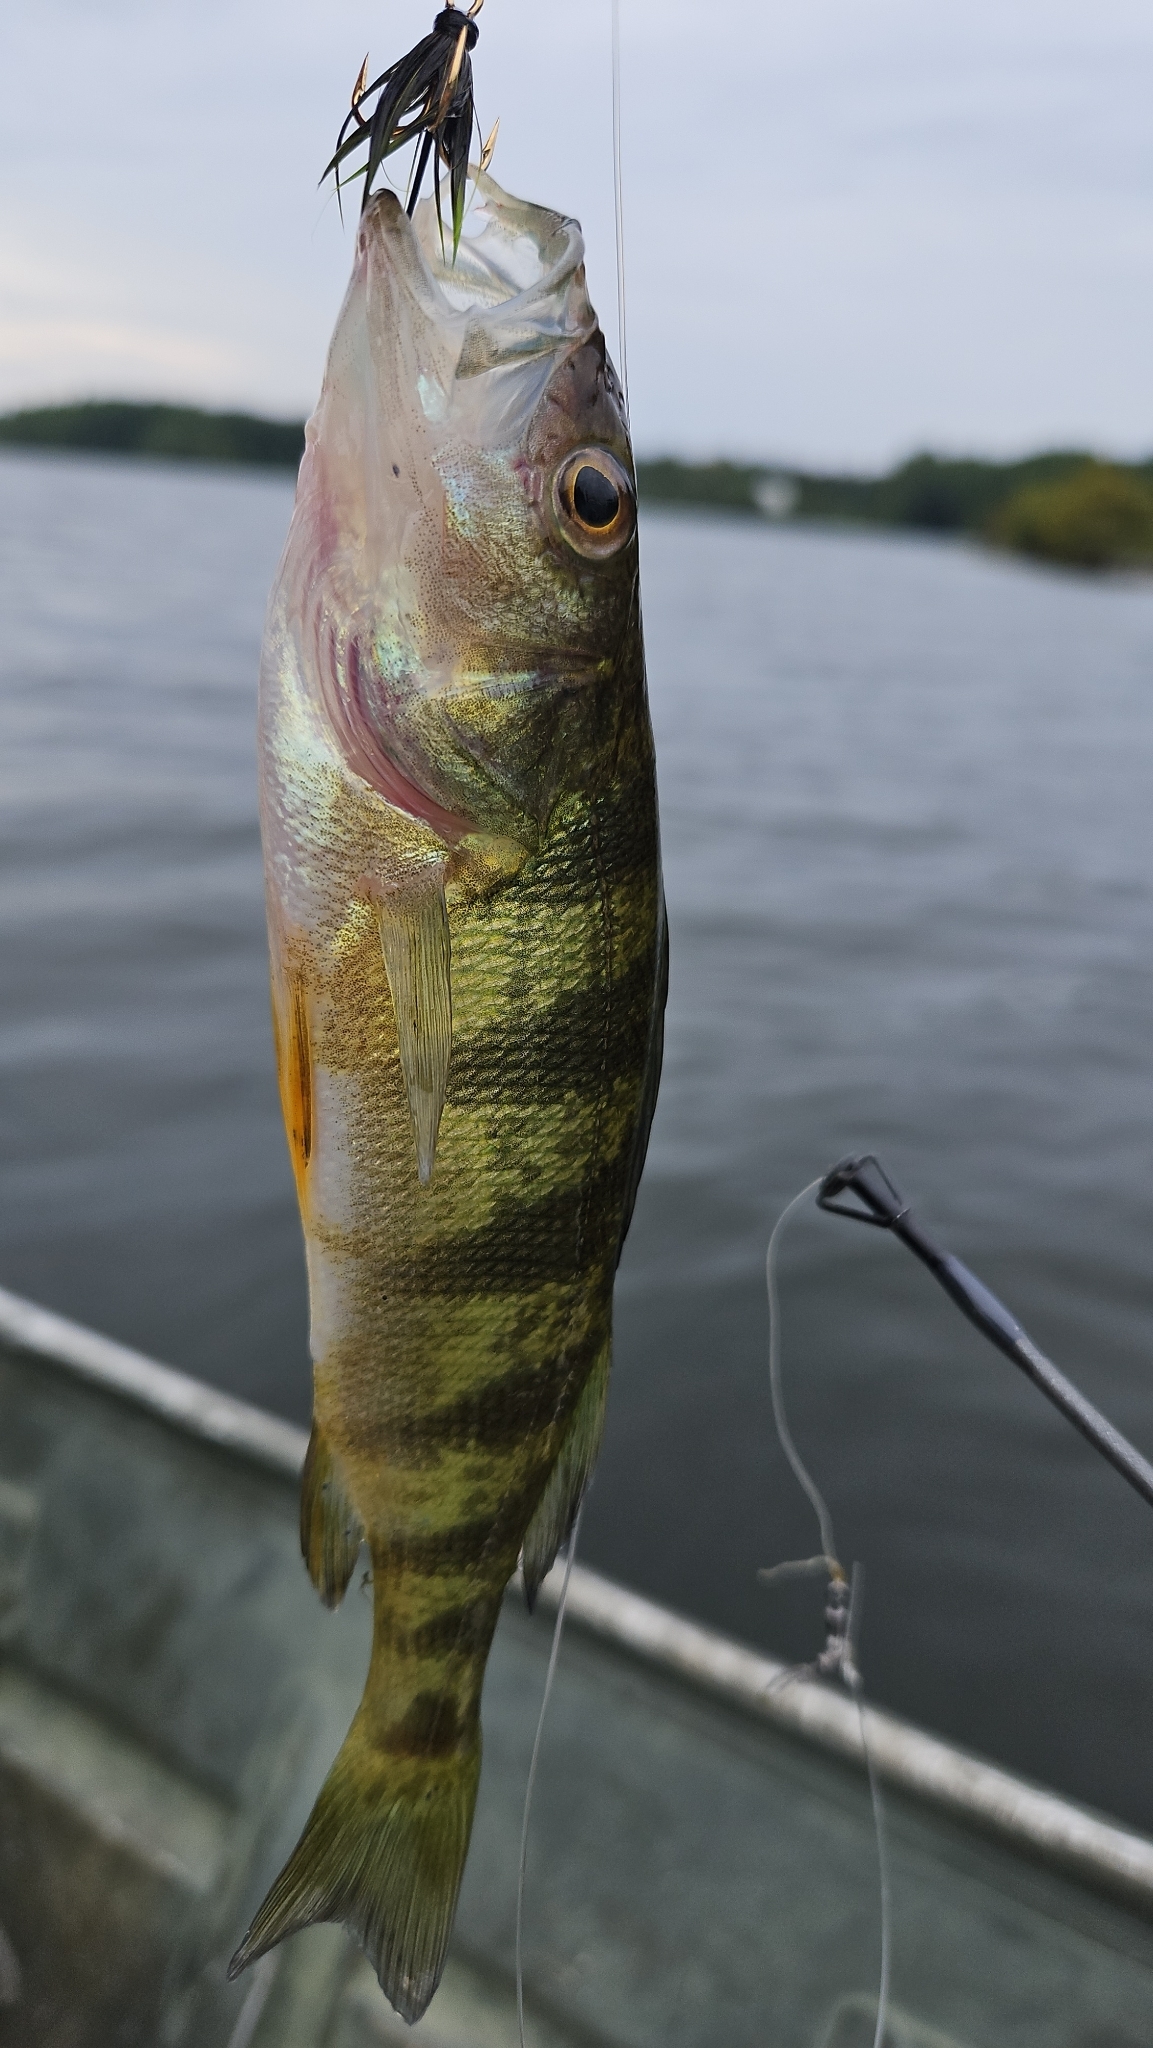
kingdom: Animalia
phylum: Chordata
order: Perciformes
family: Percidae
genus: Perca
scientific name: Perca flavescens
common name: Yellow perch
